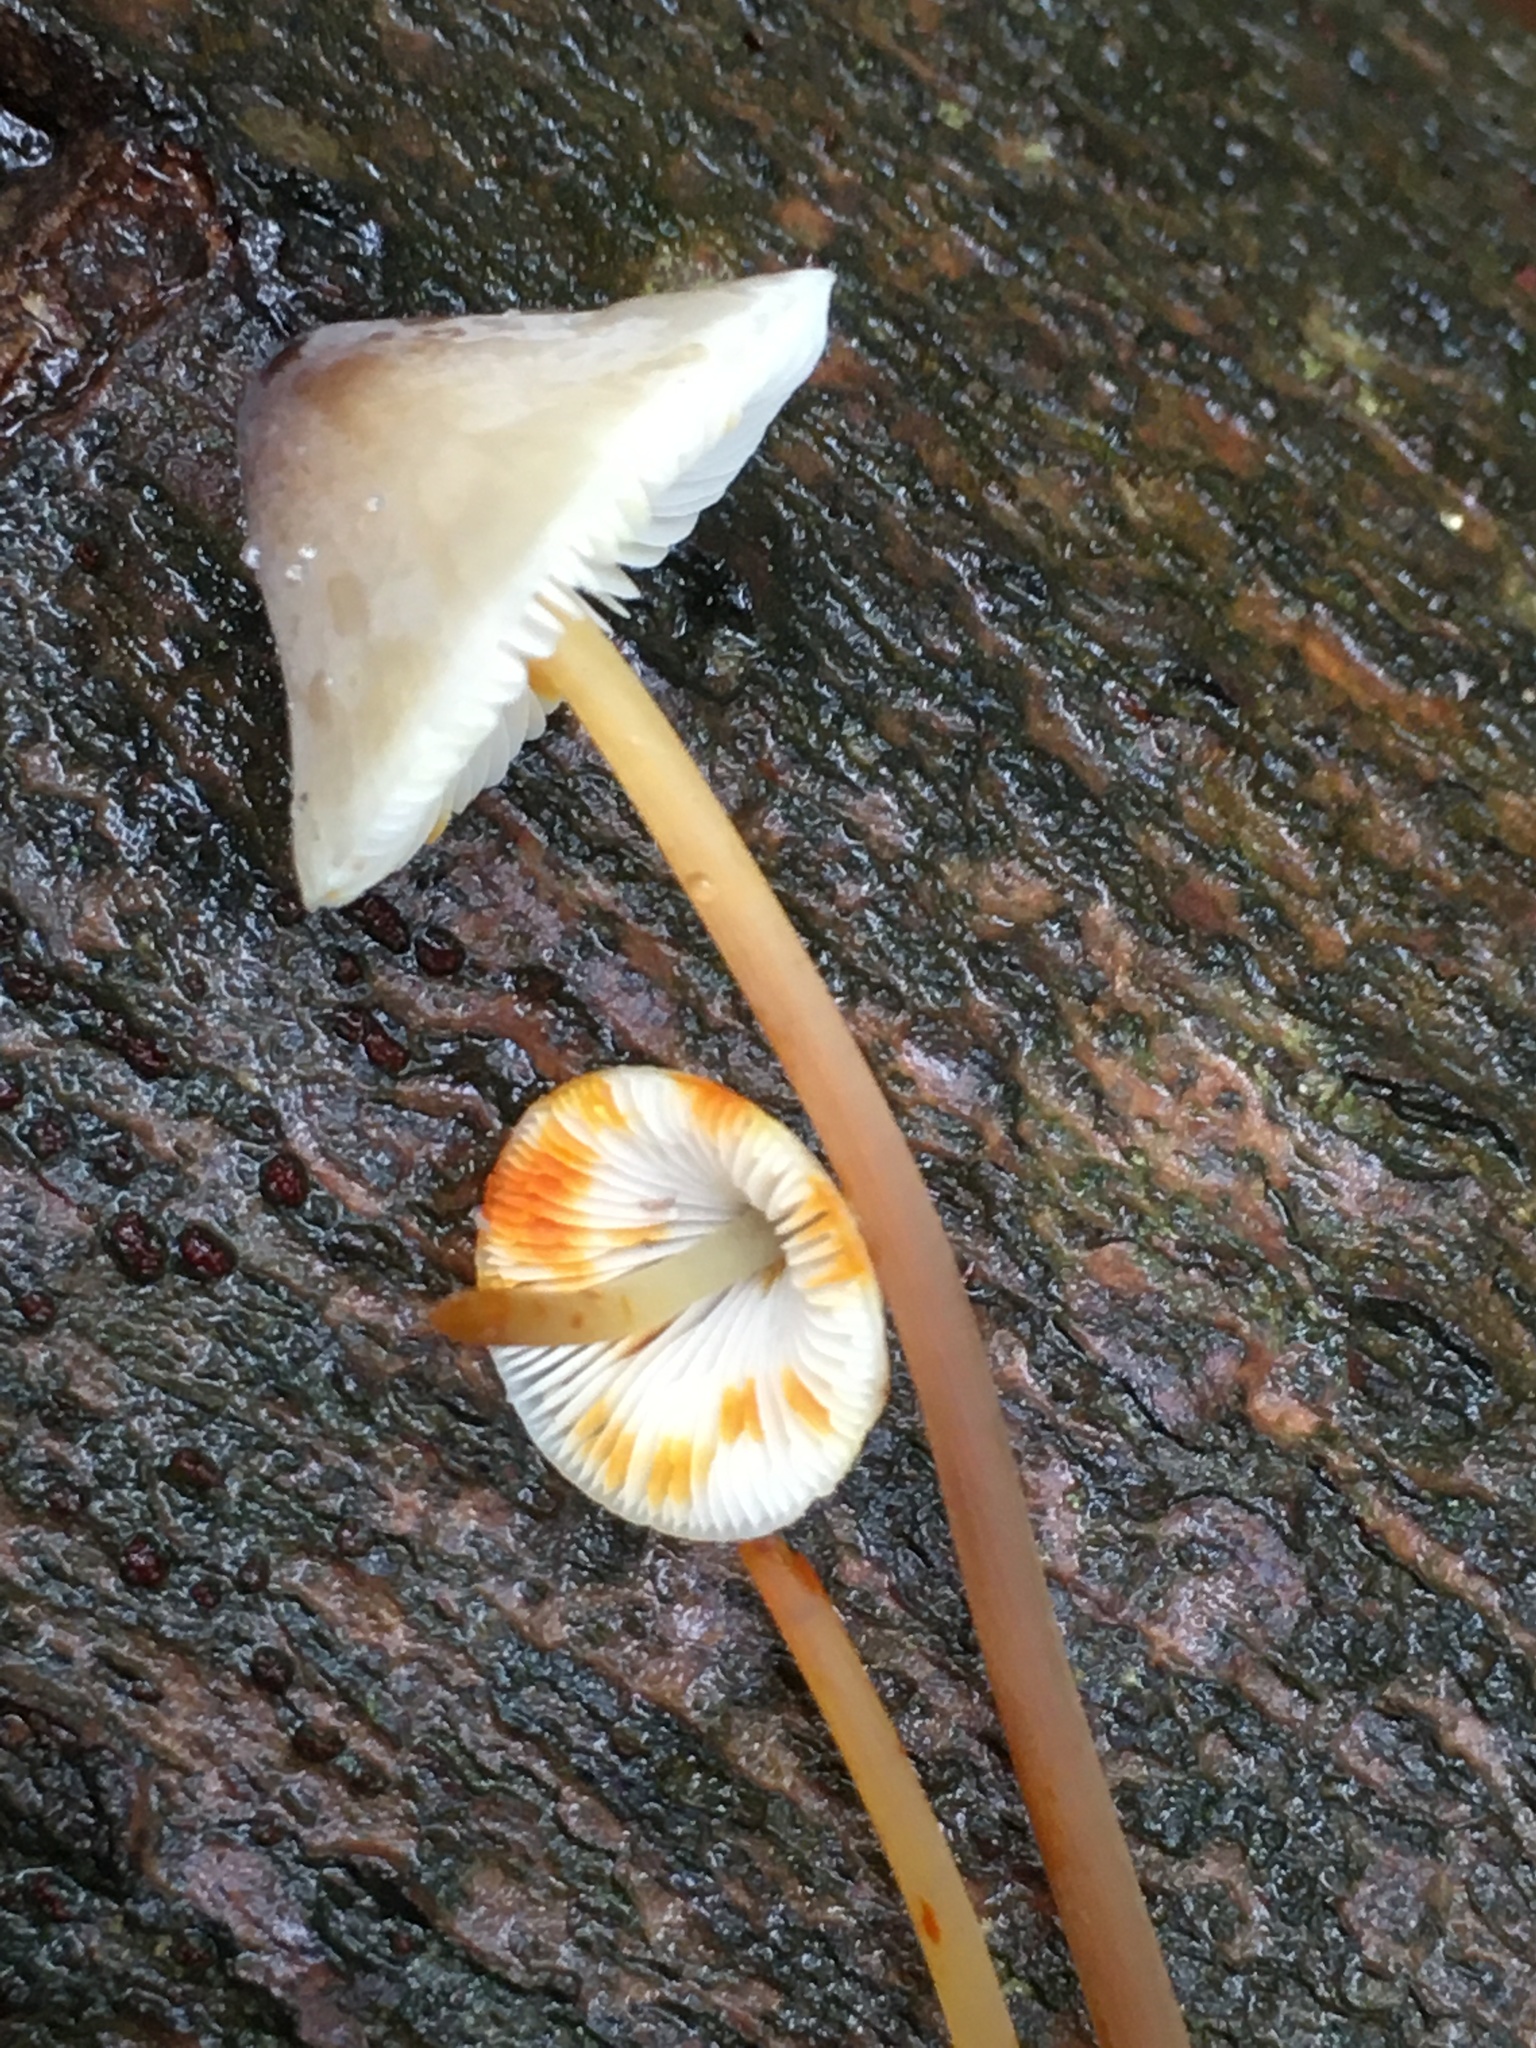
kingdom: Fungi
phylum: Basidiomycota
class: Agaricomycetes
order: Agaricales
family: Mycenaceae
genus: Mycena
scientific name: Mycena crocata
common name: Saffrondrop bonnet
